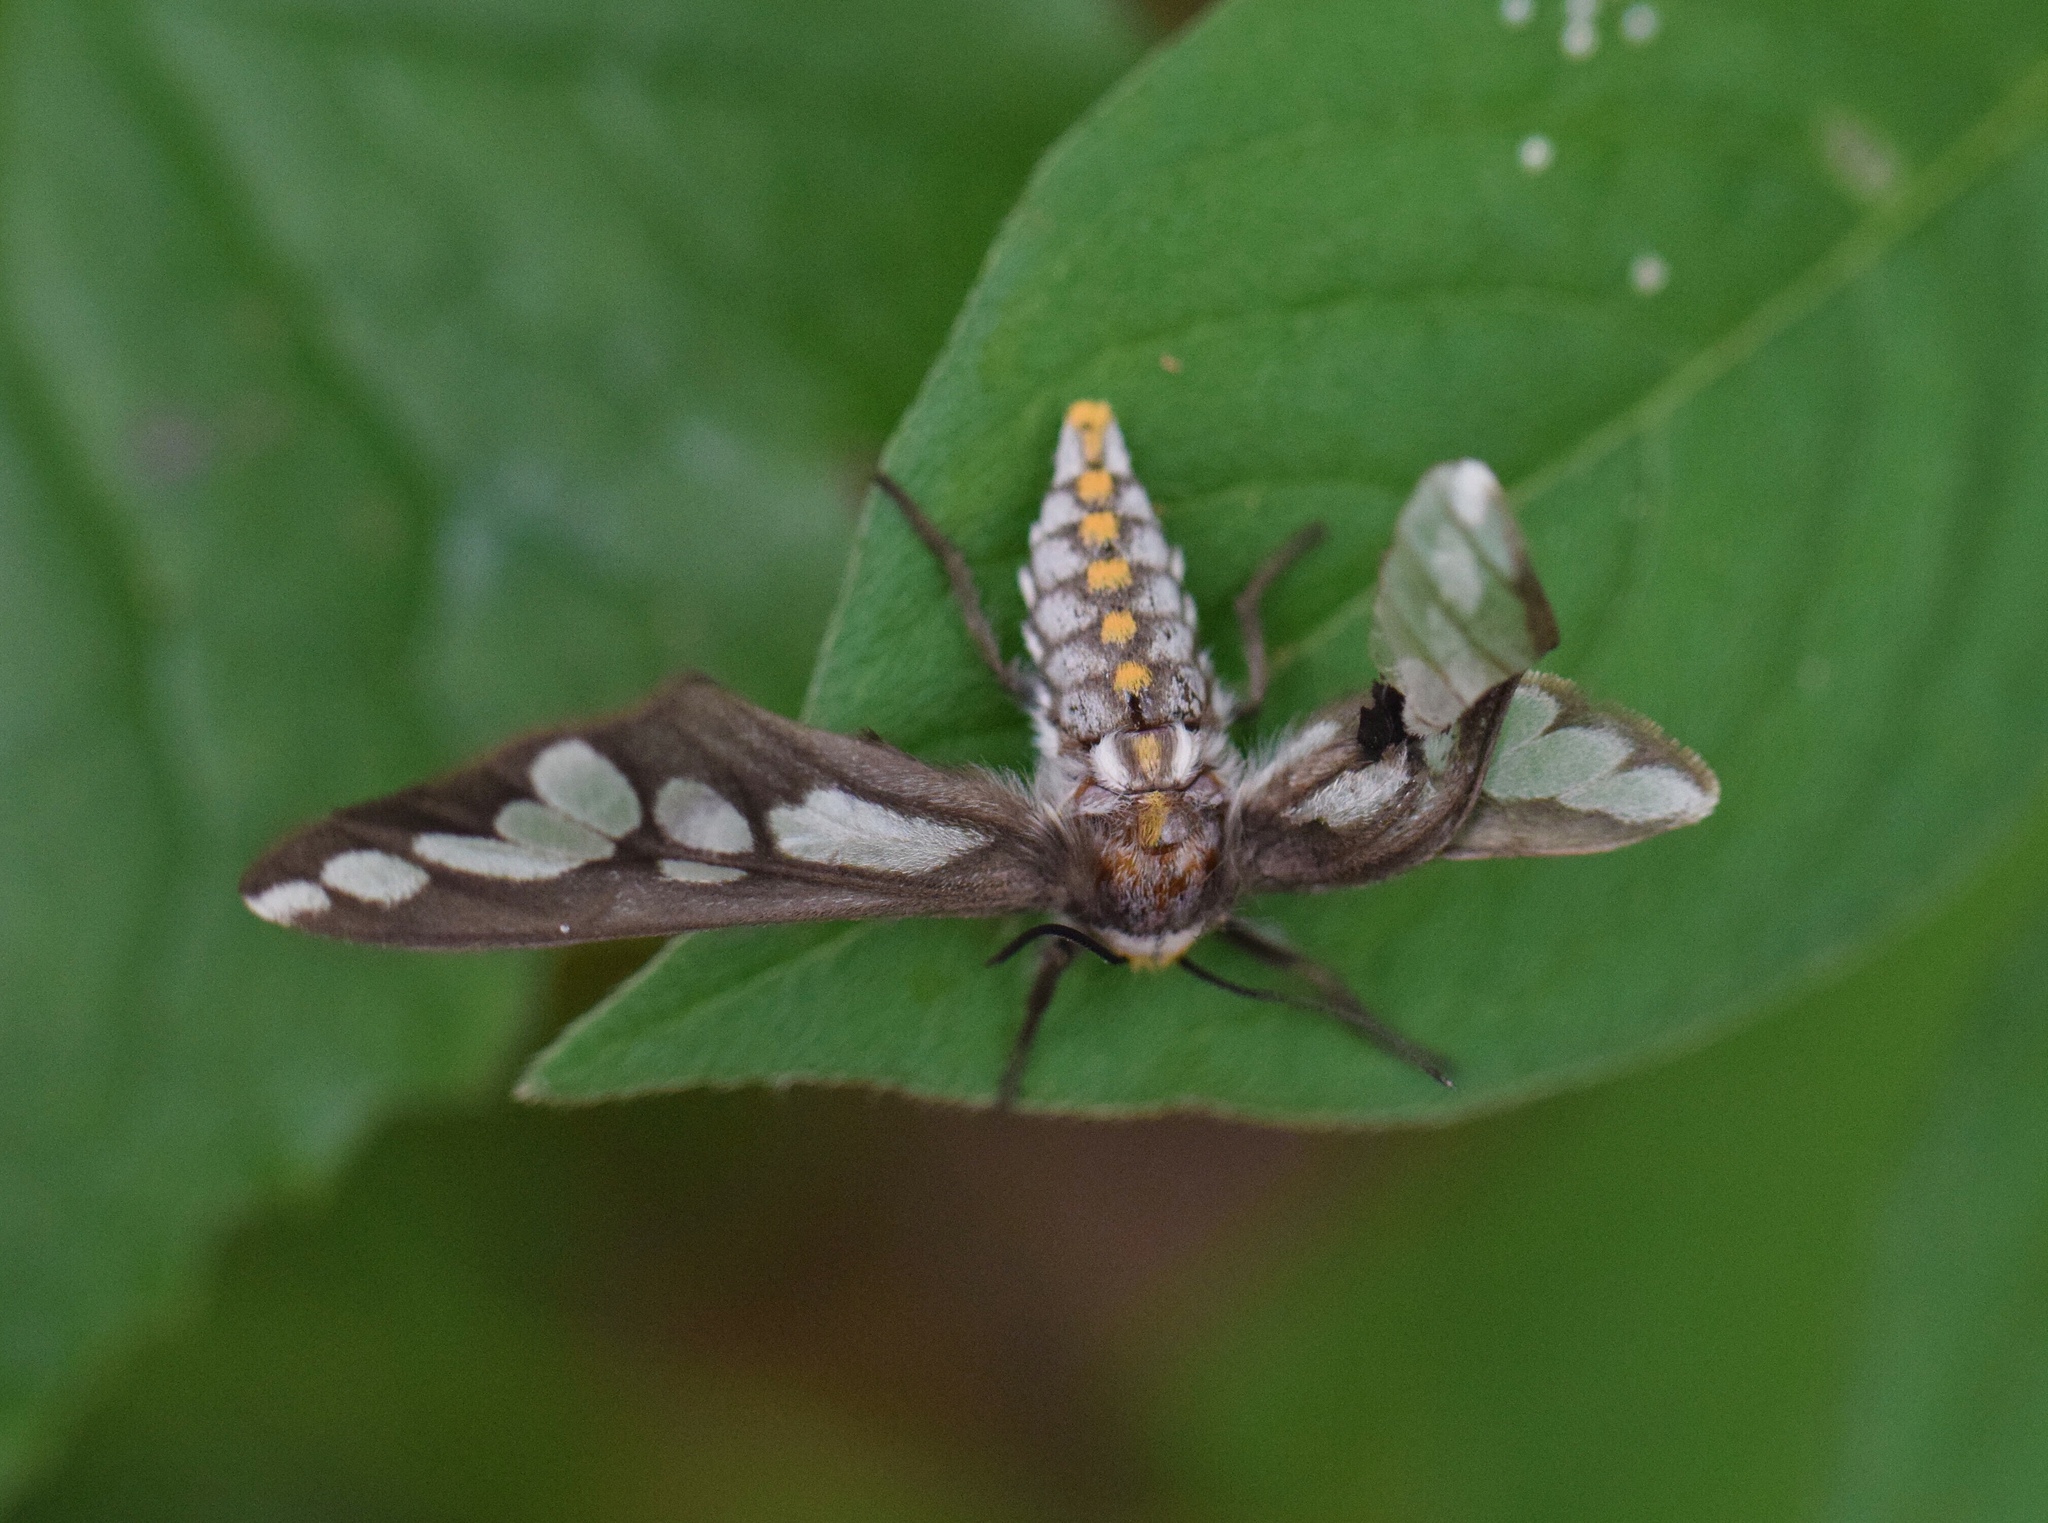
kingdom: Animalia
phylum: Arthropoda
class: Insecta
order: Lepidoptera
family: Erebidae
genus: Thyretes
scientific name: Thyretes caffra
